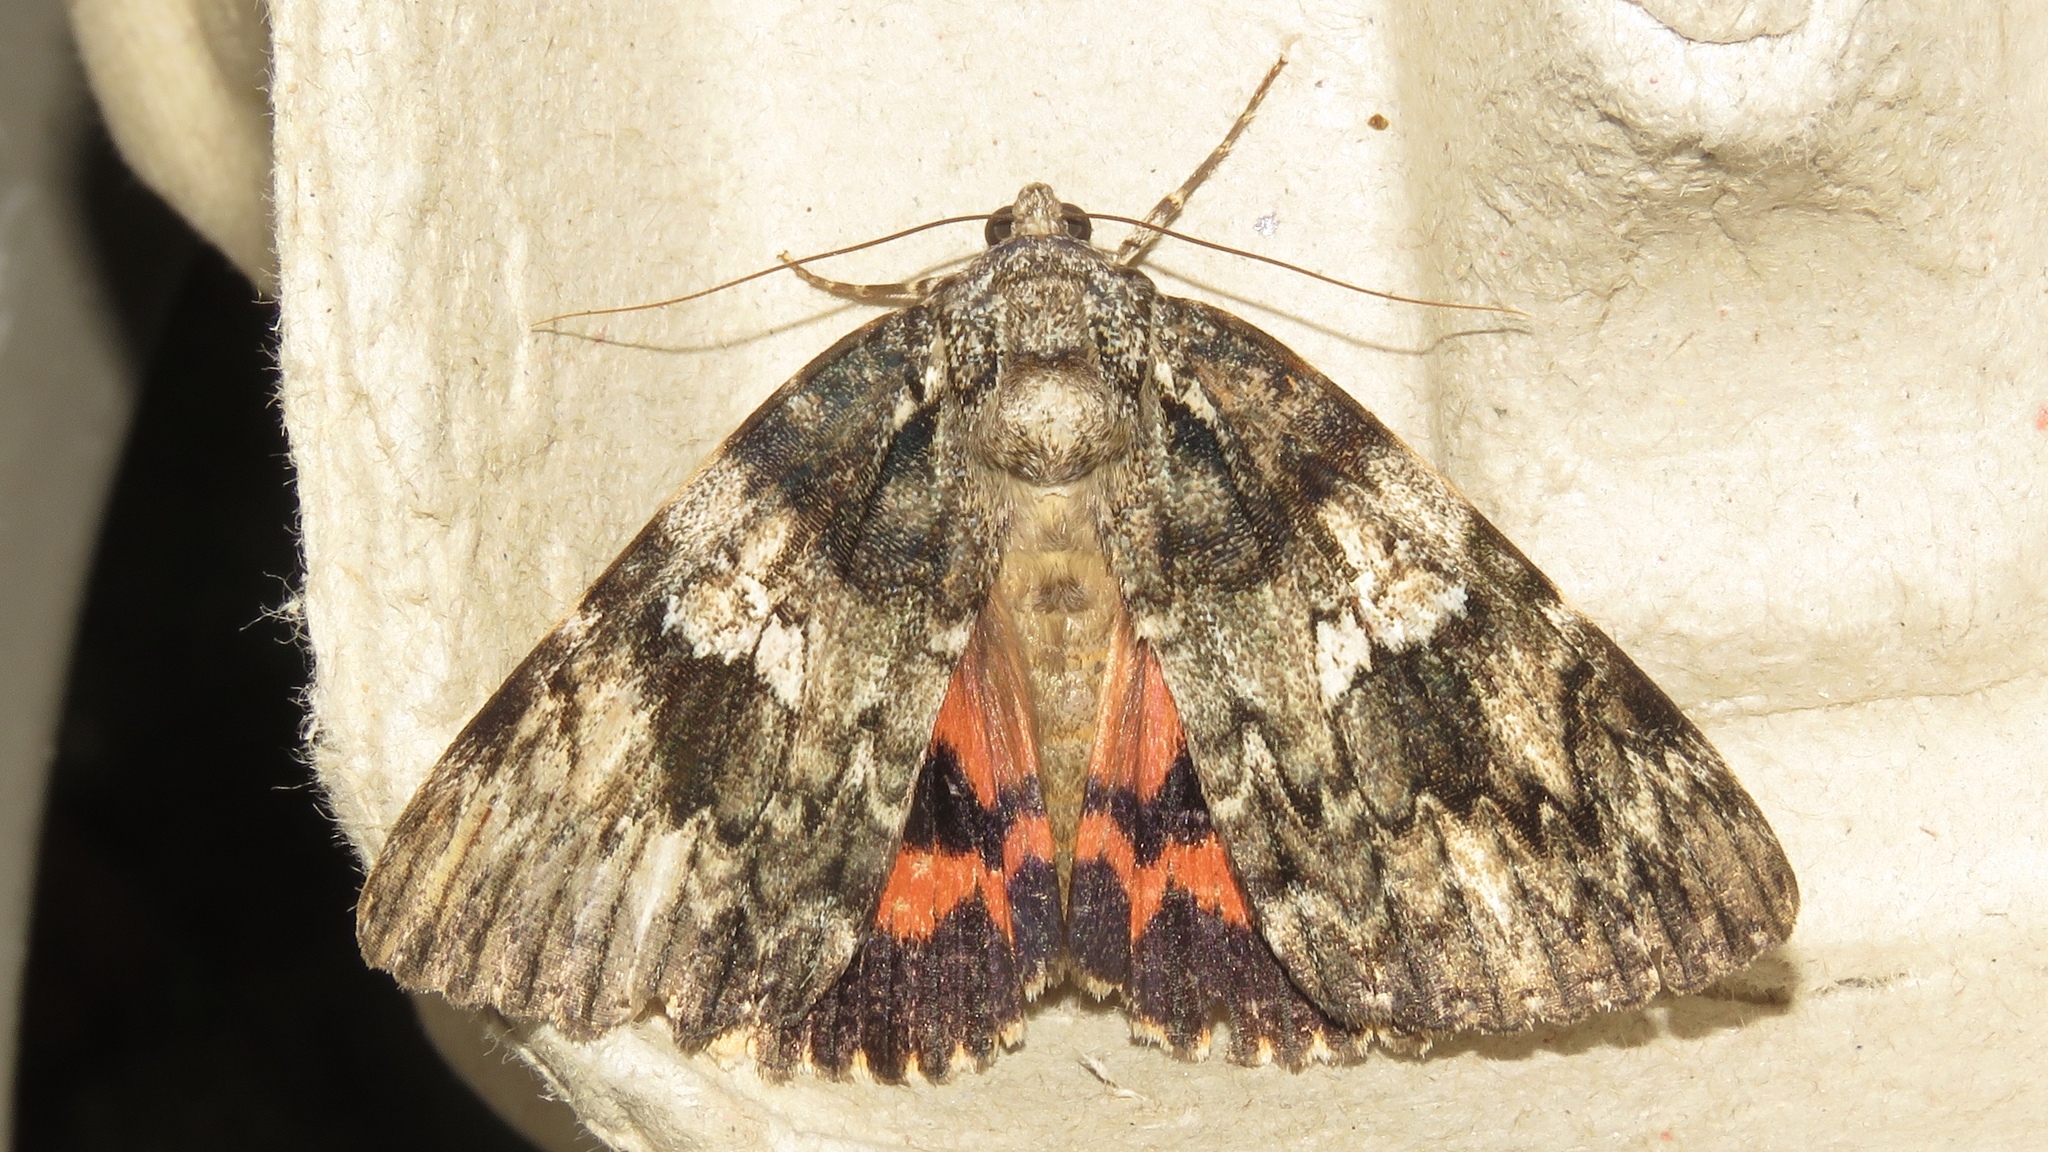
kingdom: Animalia
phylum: Arthropoda
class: Insecta
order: Lepidoptera
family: Erebidae
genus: Catocala
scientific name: Catocala ilia
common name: Ilia underwing
